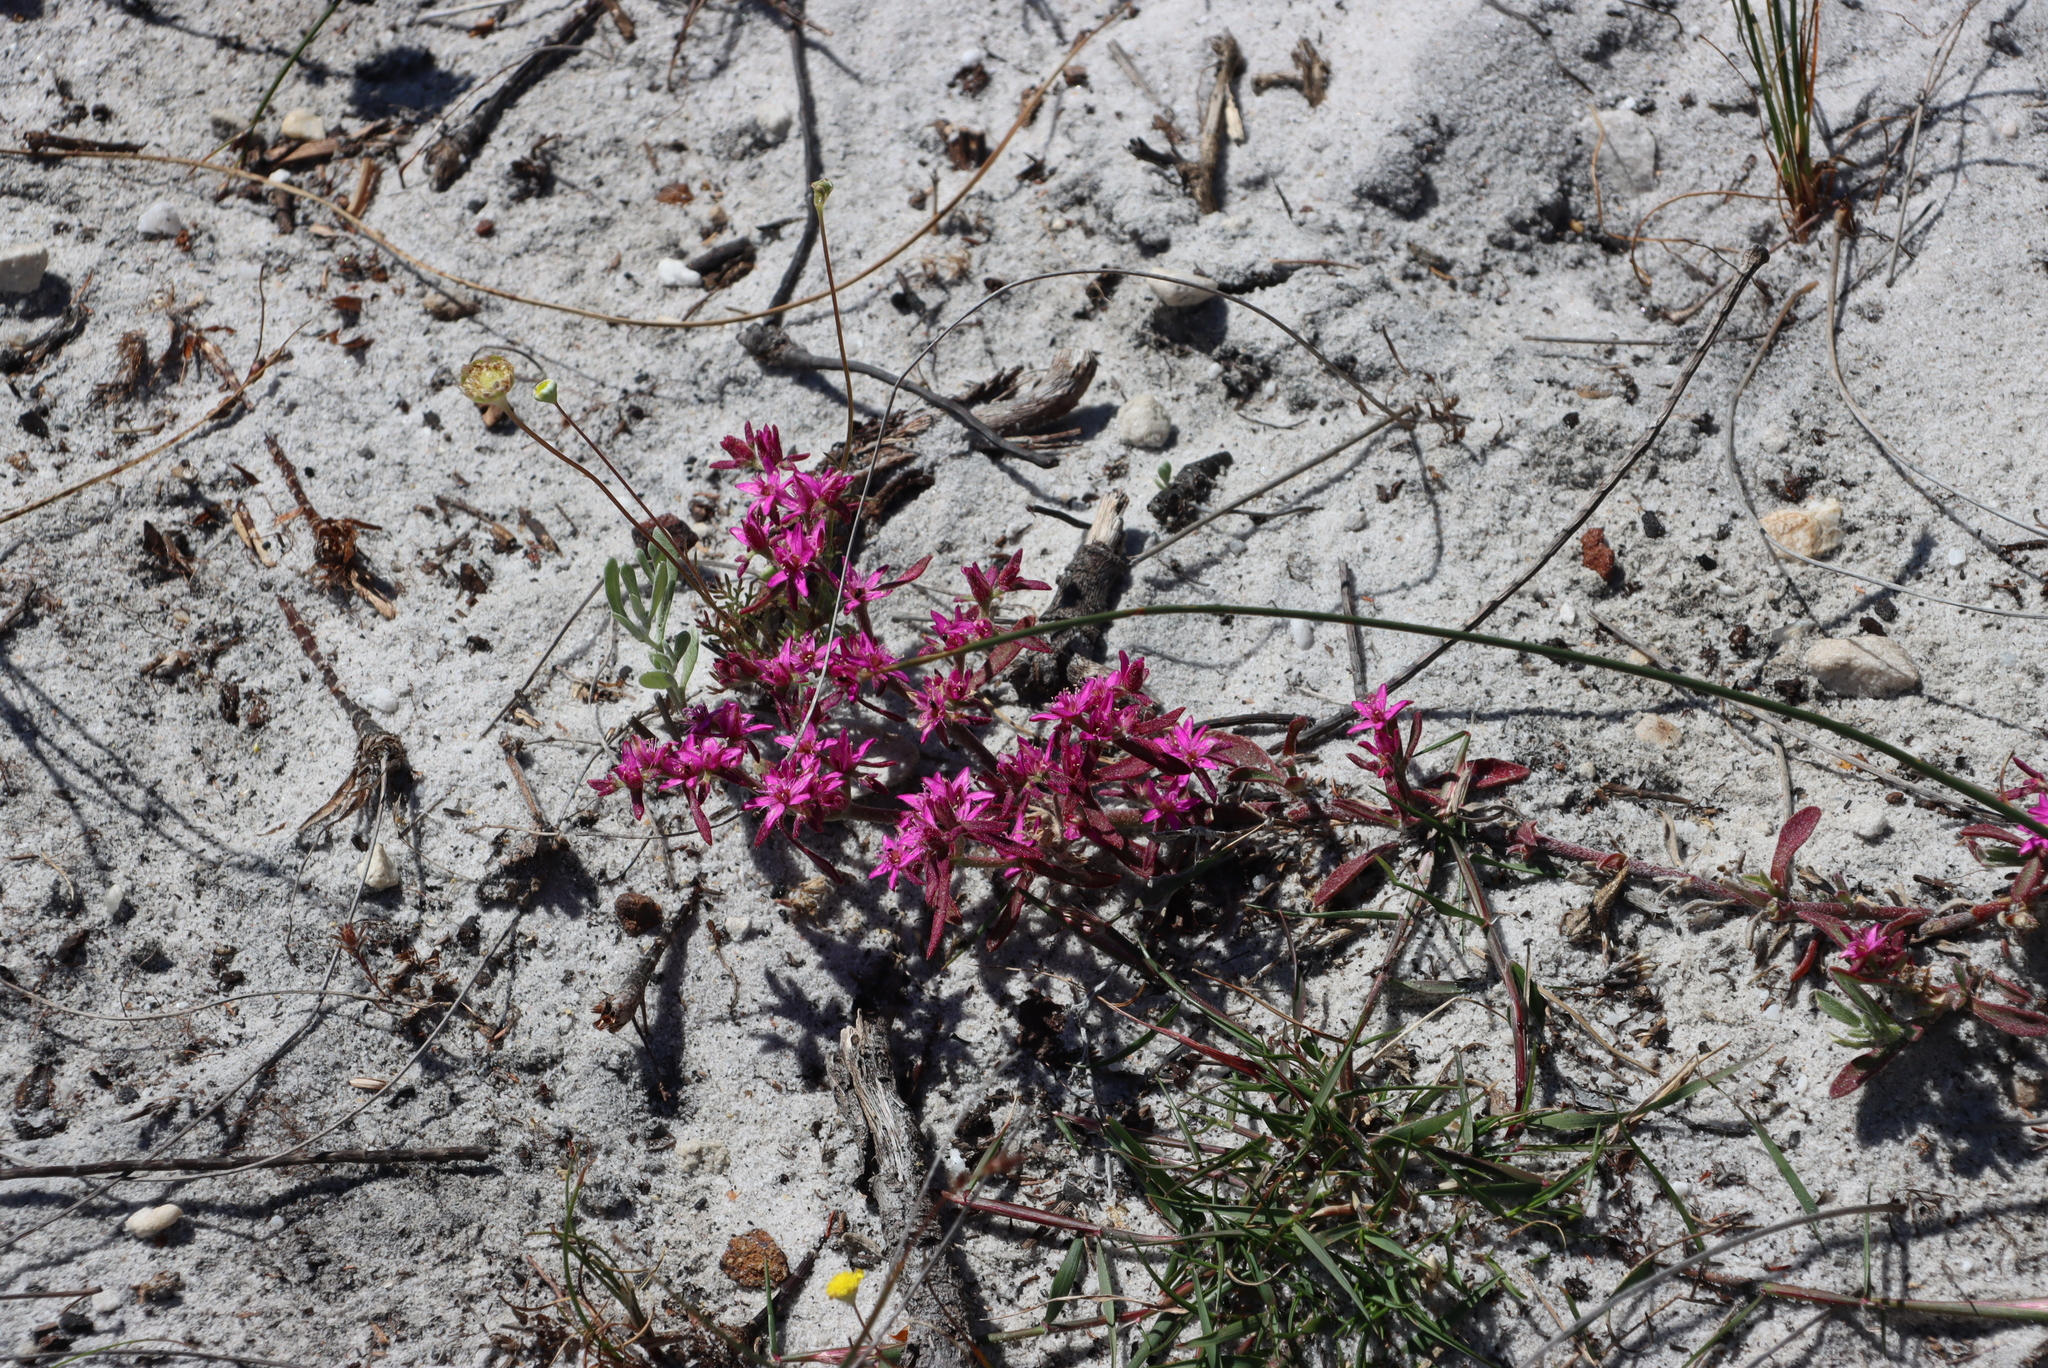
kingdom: Plantae
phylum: Tracheophyta
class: Magnoliopsida
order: Caryophyllales
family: Aizoaceae
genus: Aizoon
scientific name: Aizoon paniculatum
